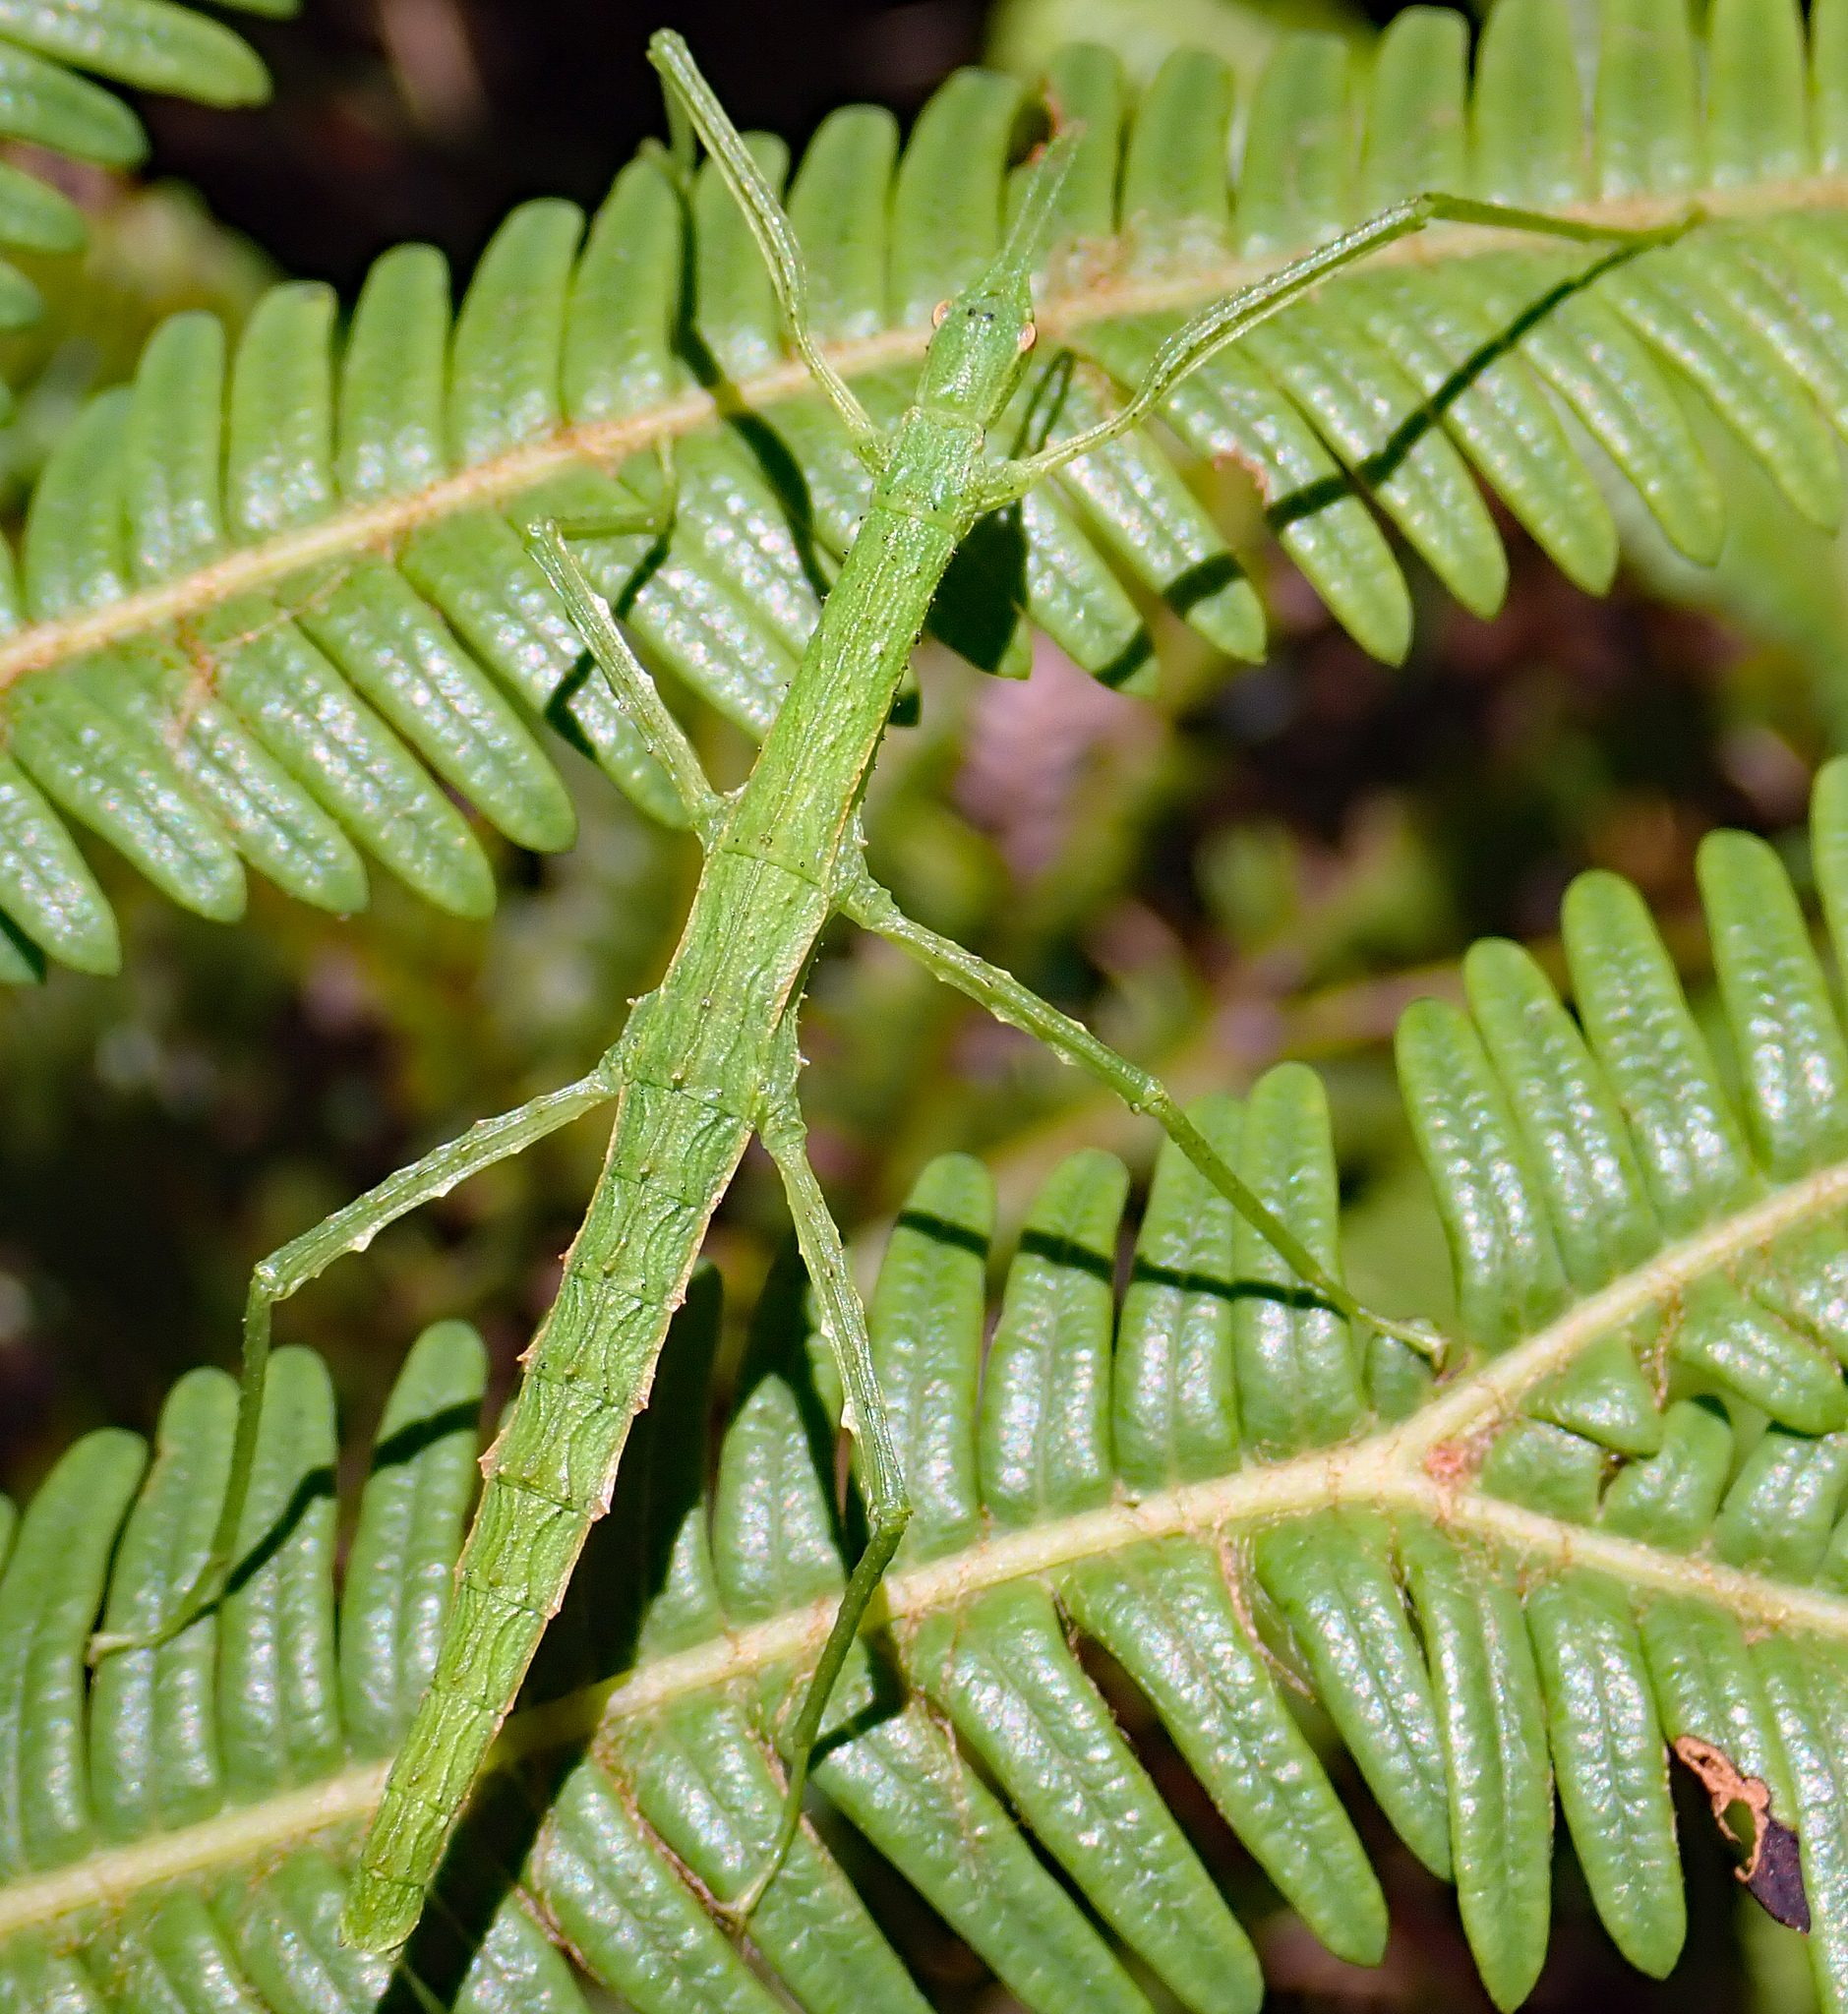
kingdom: Animalia
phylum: Arthropoda
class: Insecta
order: Phasmida
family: Phasmatidae
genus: Spinotectarchus
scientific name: Spinotectarchus acornutus
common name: The spiny ridge-backed stick insect
